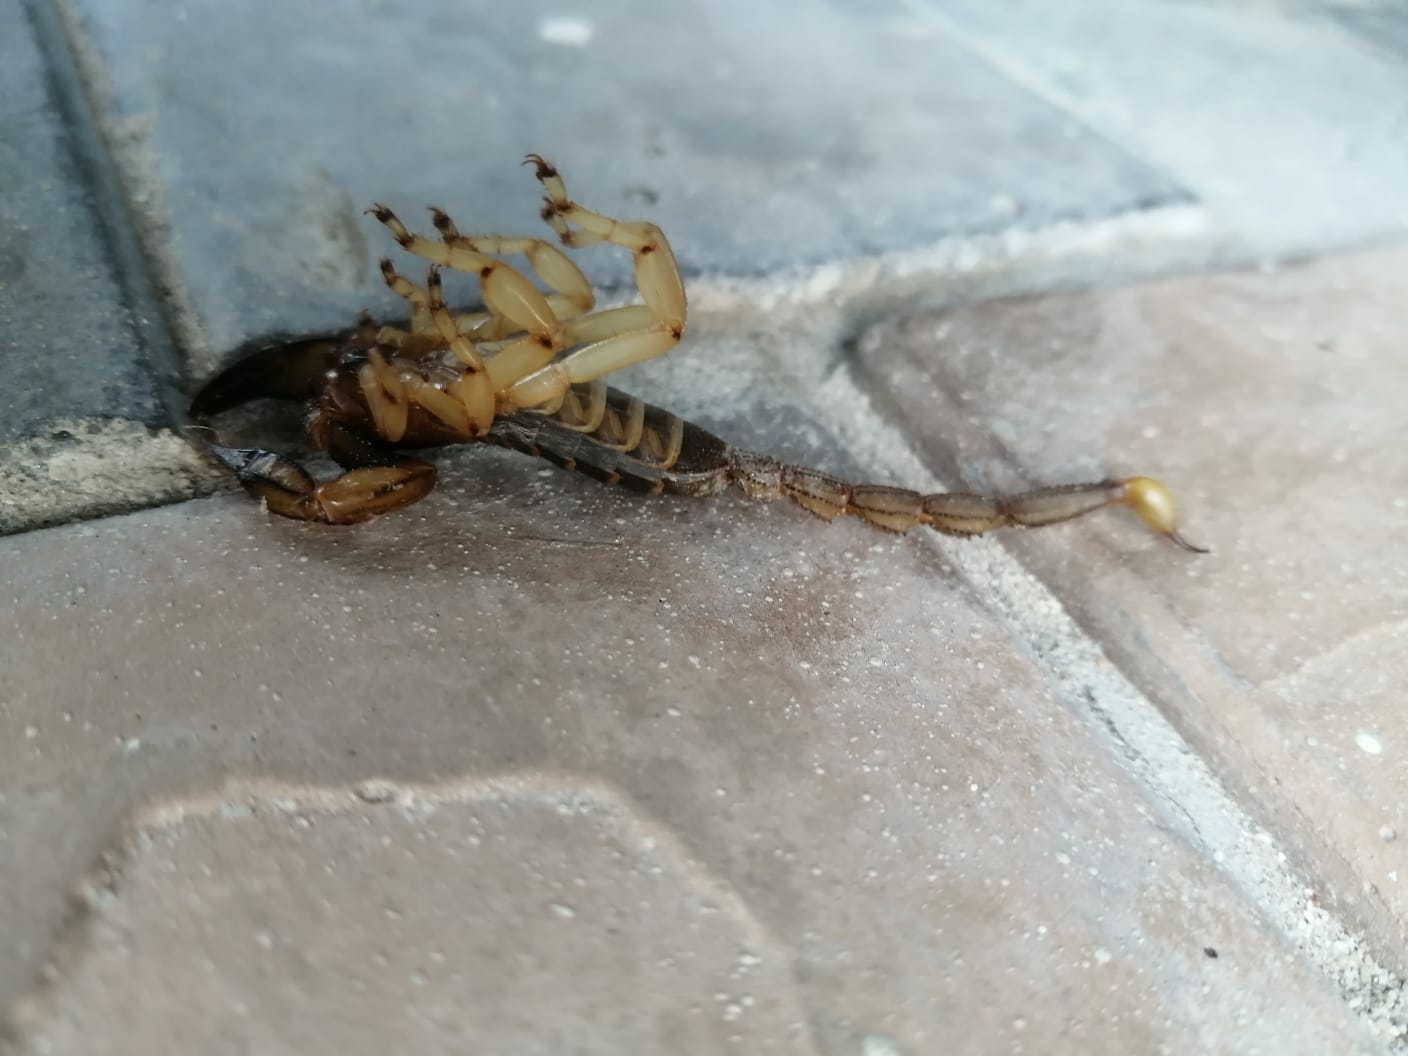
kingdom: Animalia
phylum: Arthropoda
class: Arachnida
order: Scorpiones
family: Scorpionidae
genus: Opistophthalmus
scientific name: Opistophthalmus capensis
